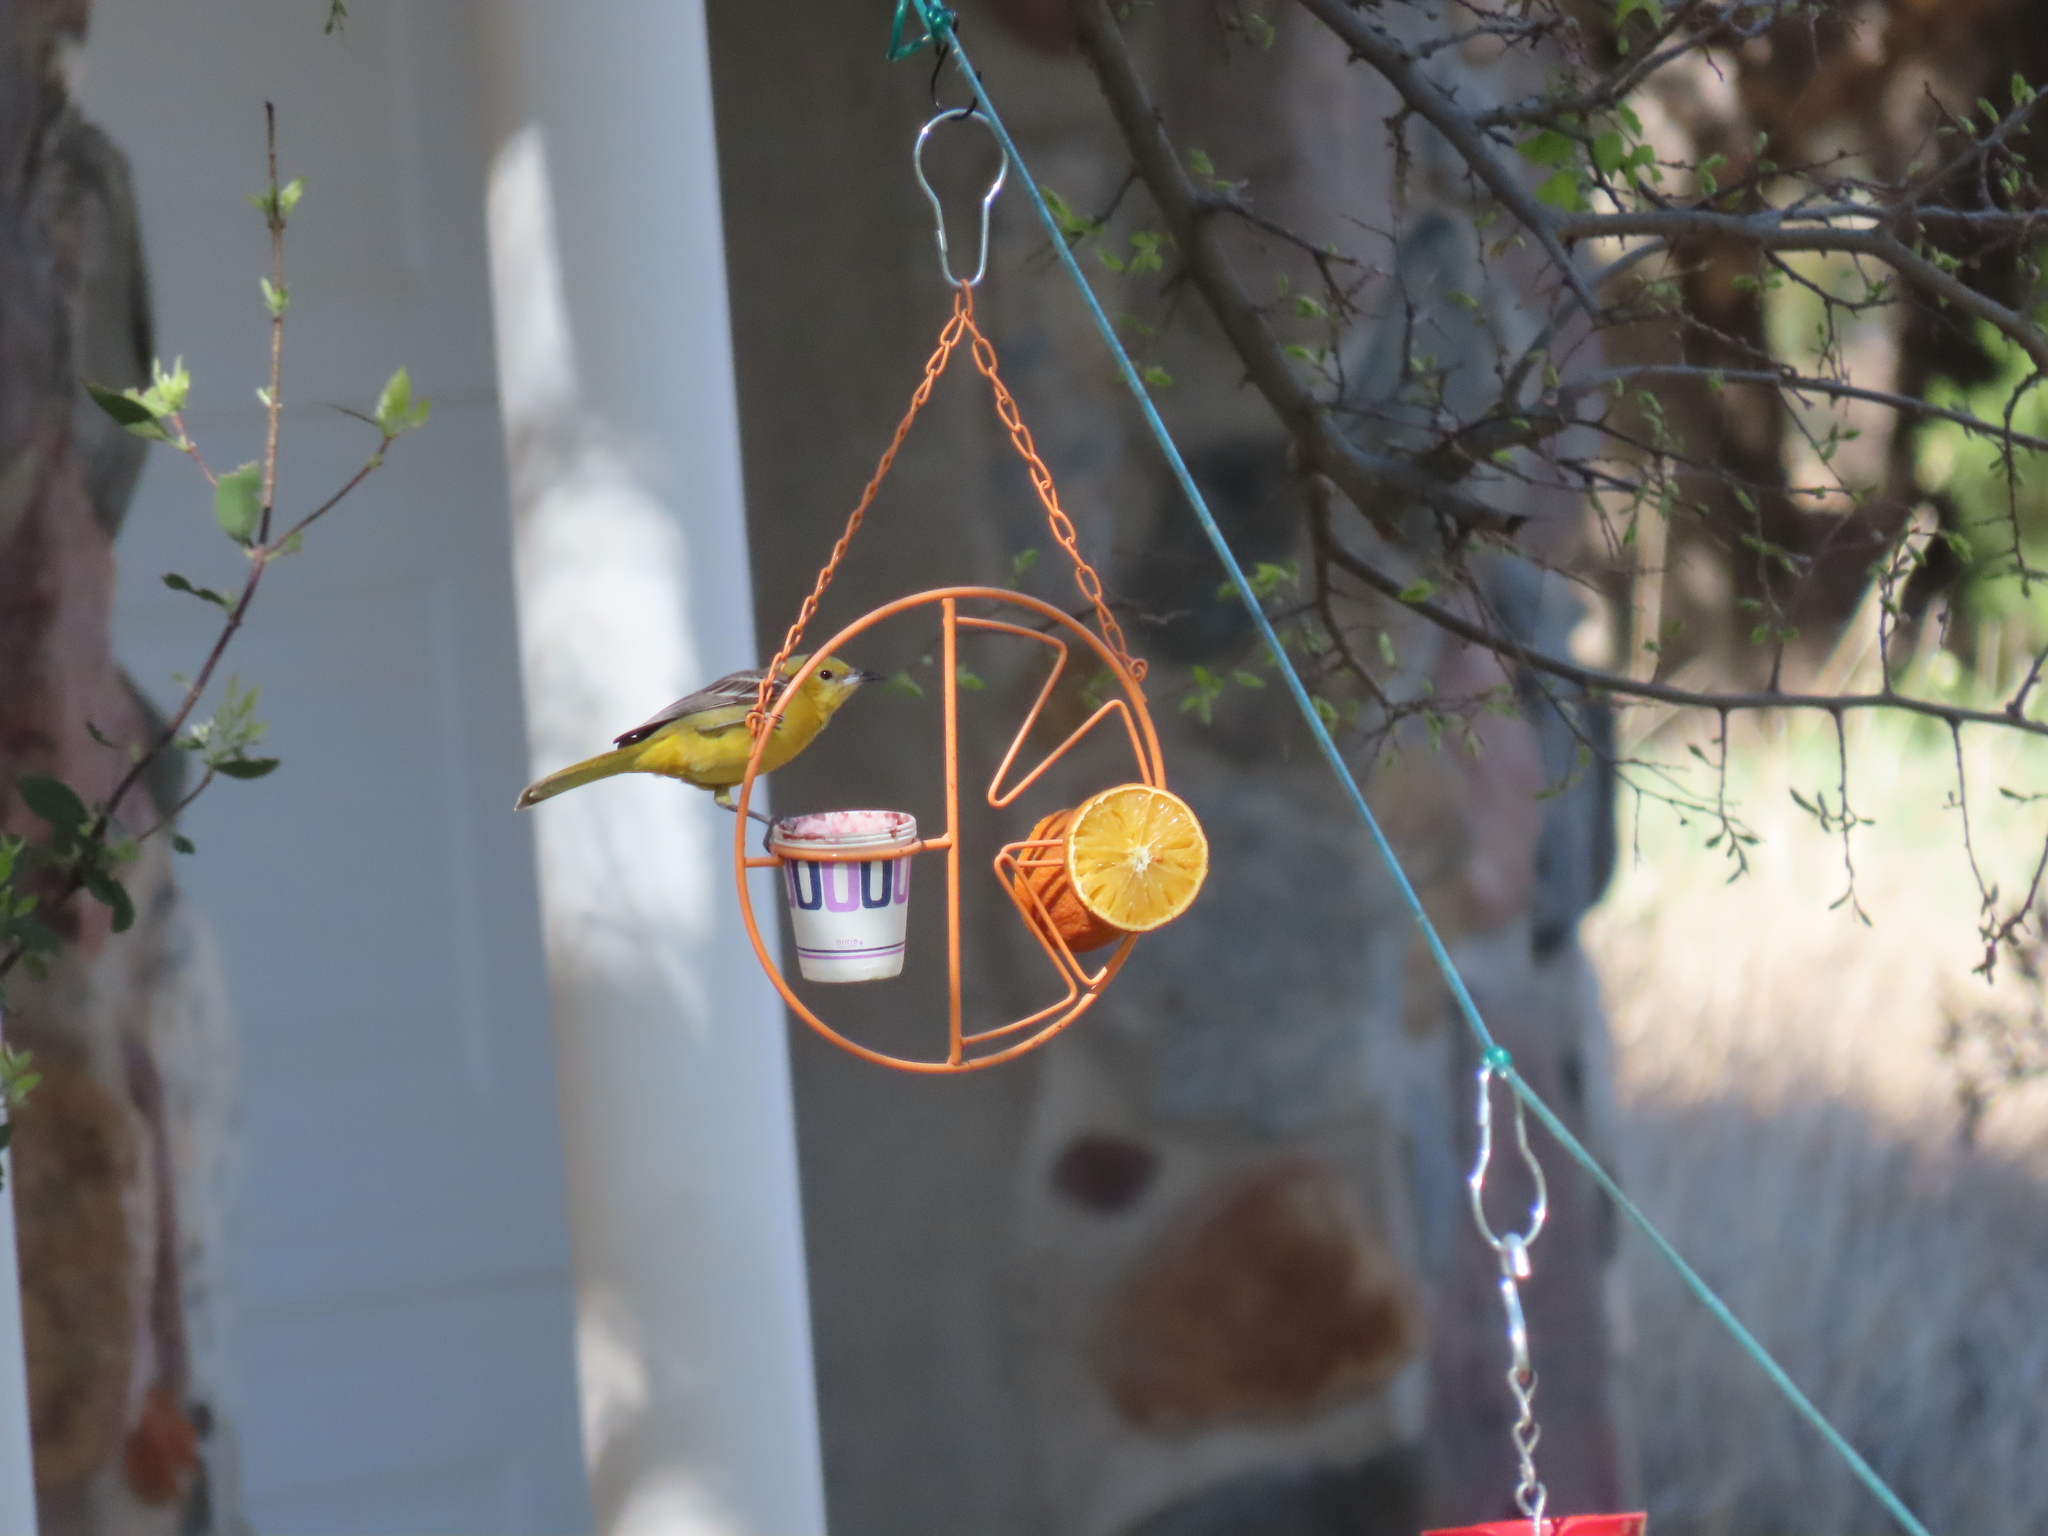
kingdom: Animalia
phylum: Chordata
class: Aves
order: Passeriformes
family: Icteridae
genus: Icterus
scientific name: Icterus cucullatus
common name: Hooded oriole
